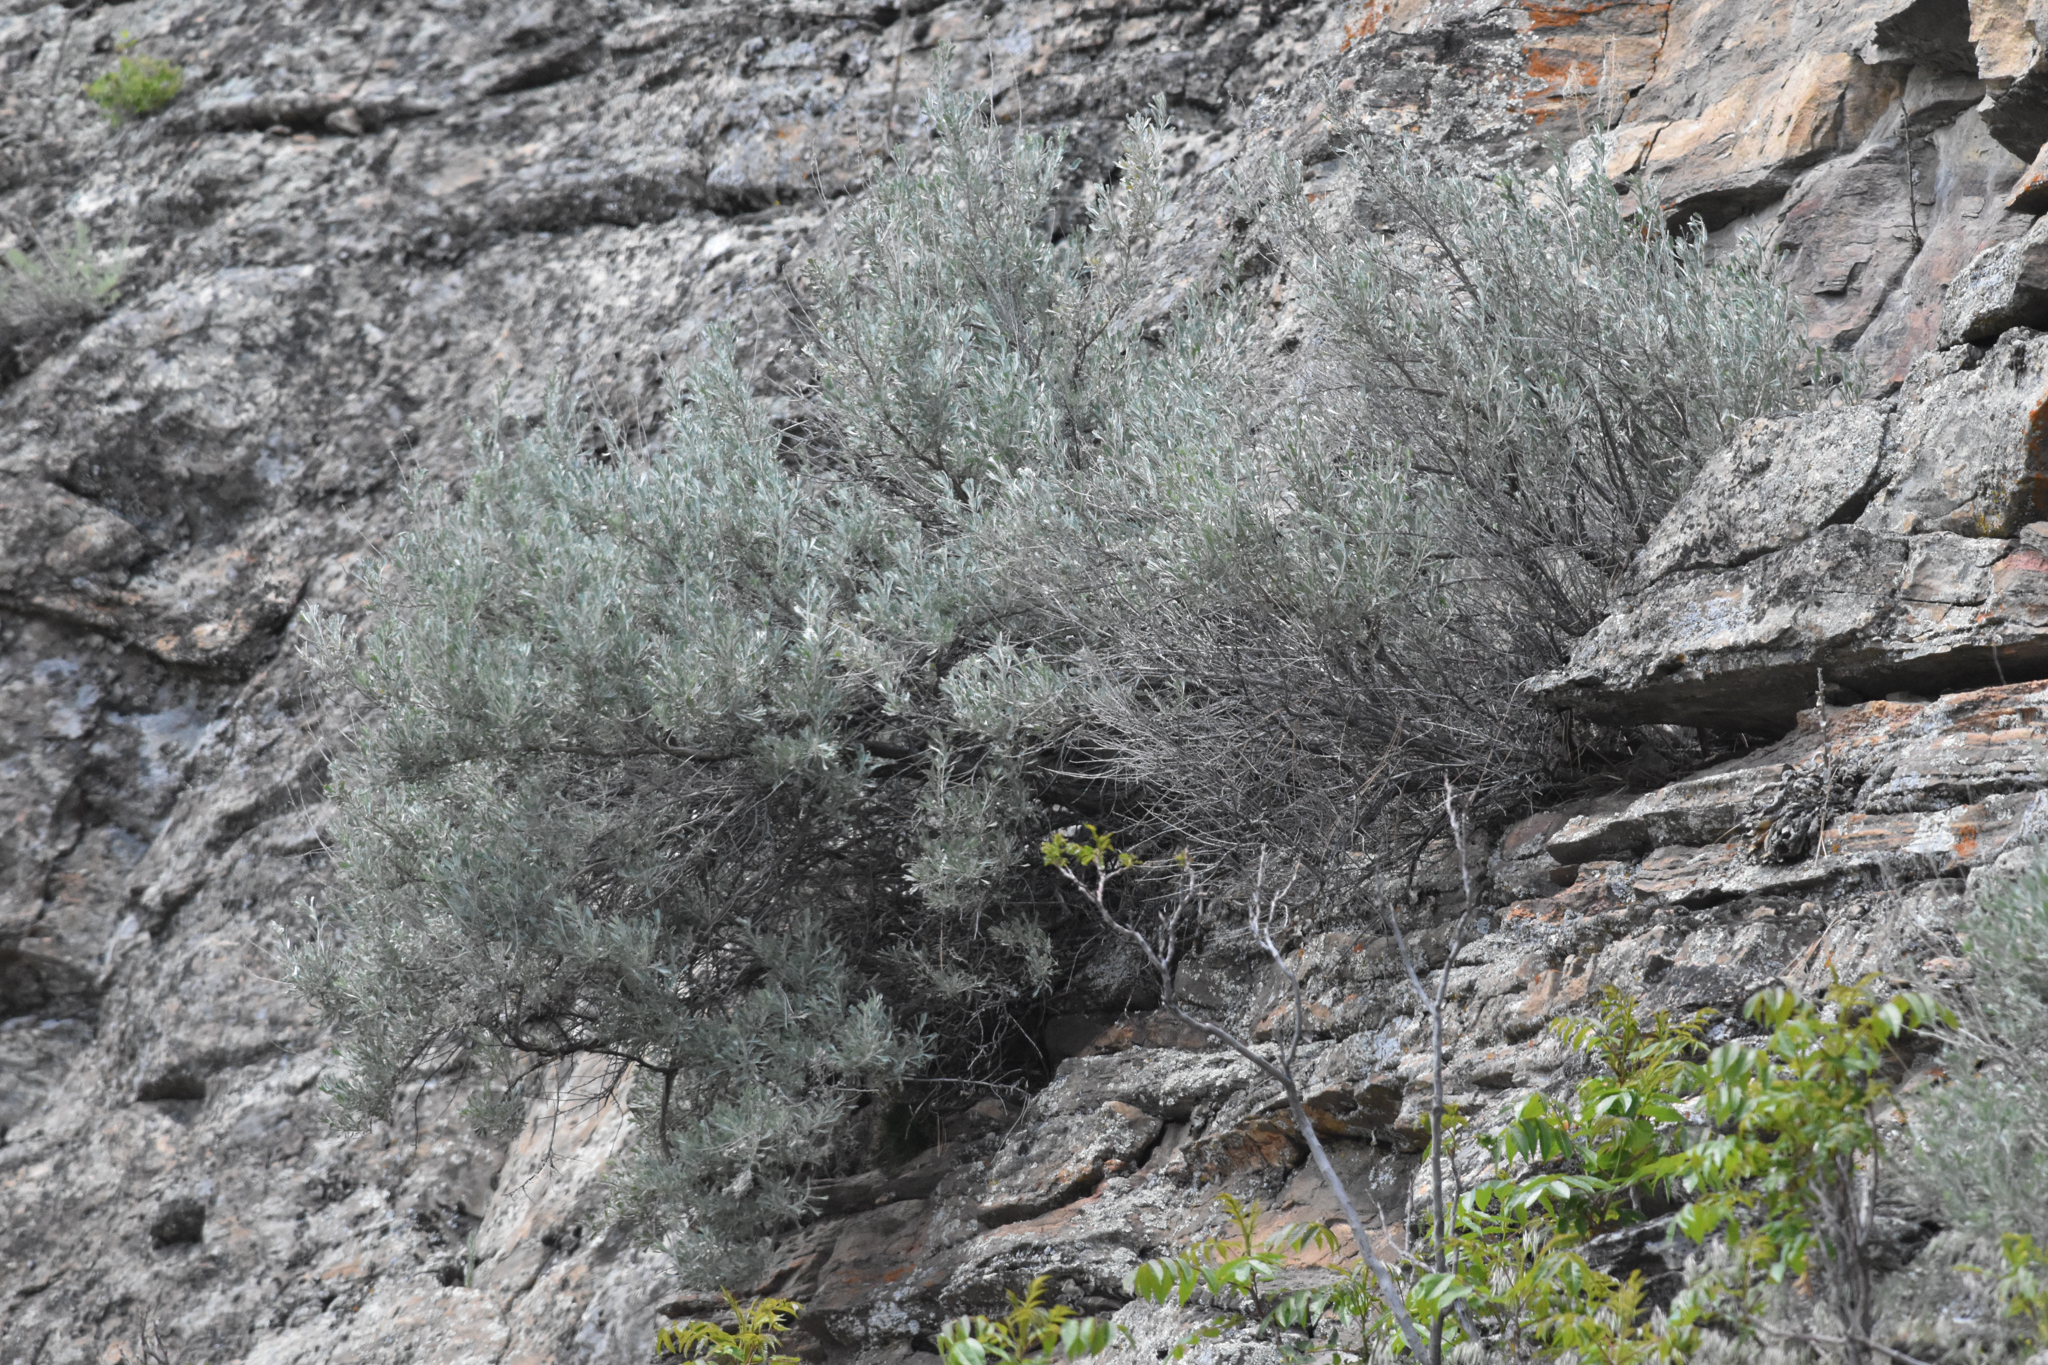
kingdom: Plantae
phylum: Tracheophyta
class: Magnoliopsida
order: Asterales
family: Asteraceae
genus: Artemisia
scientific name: Artemisia tridentata
